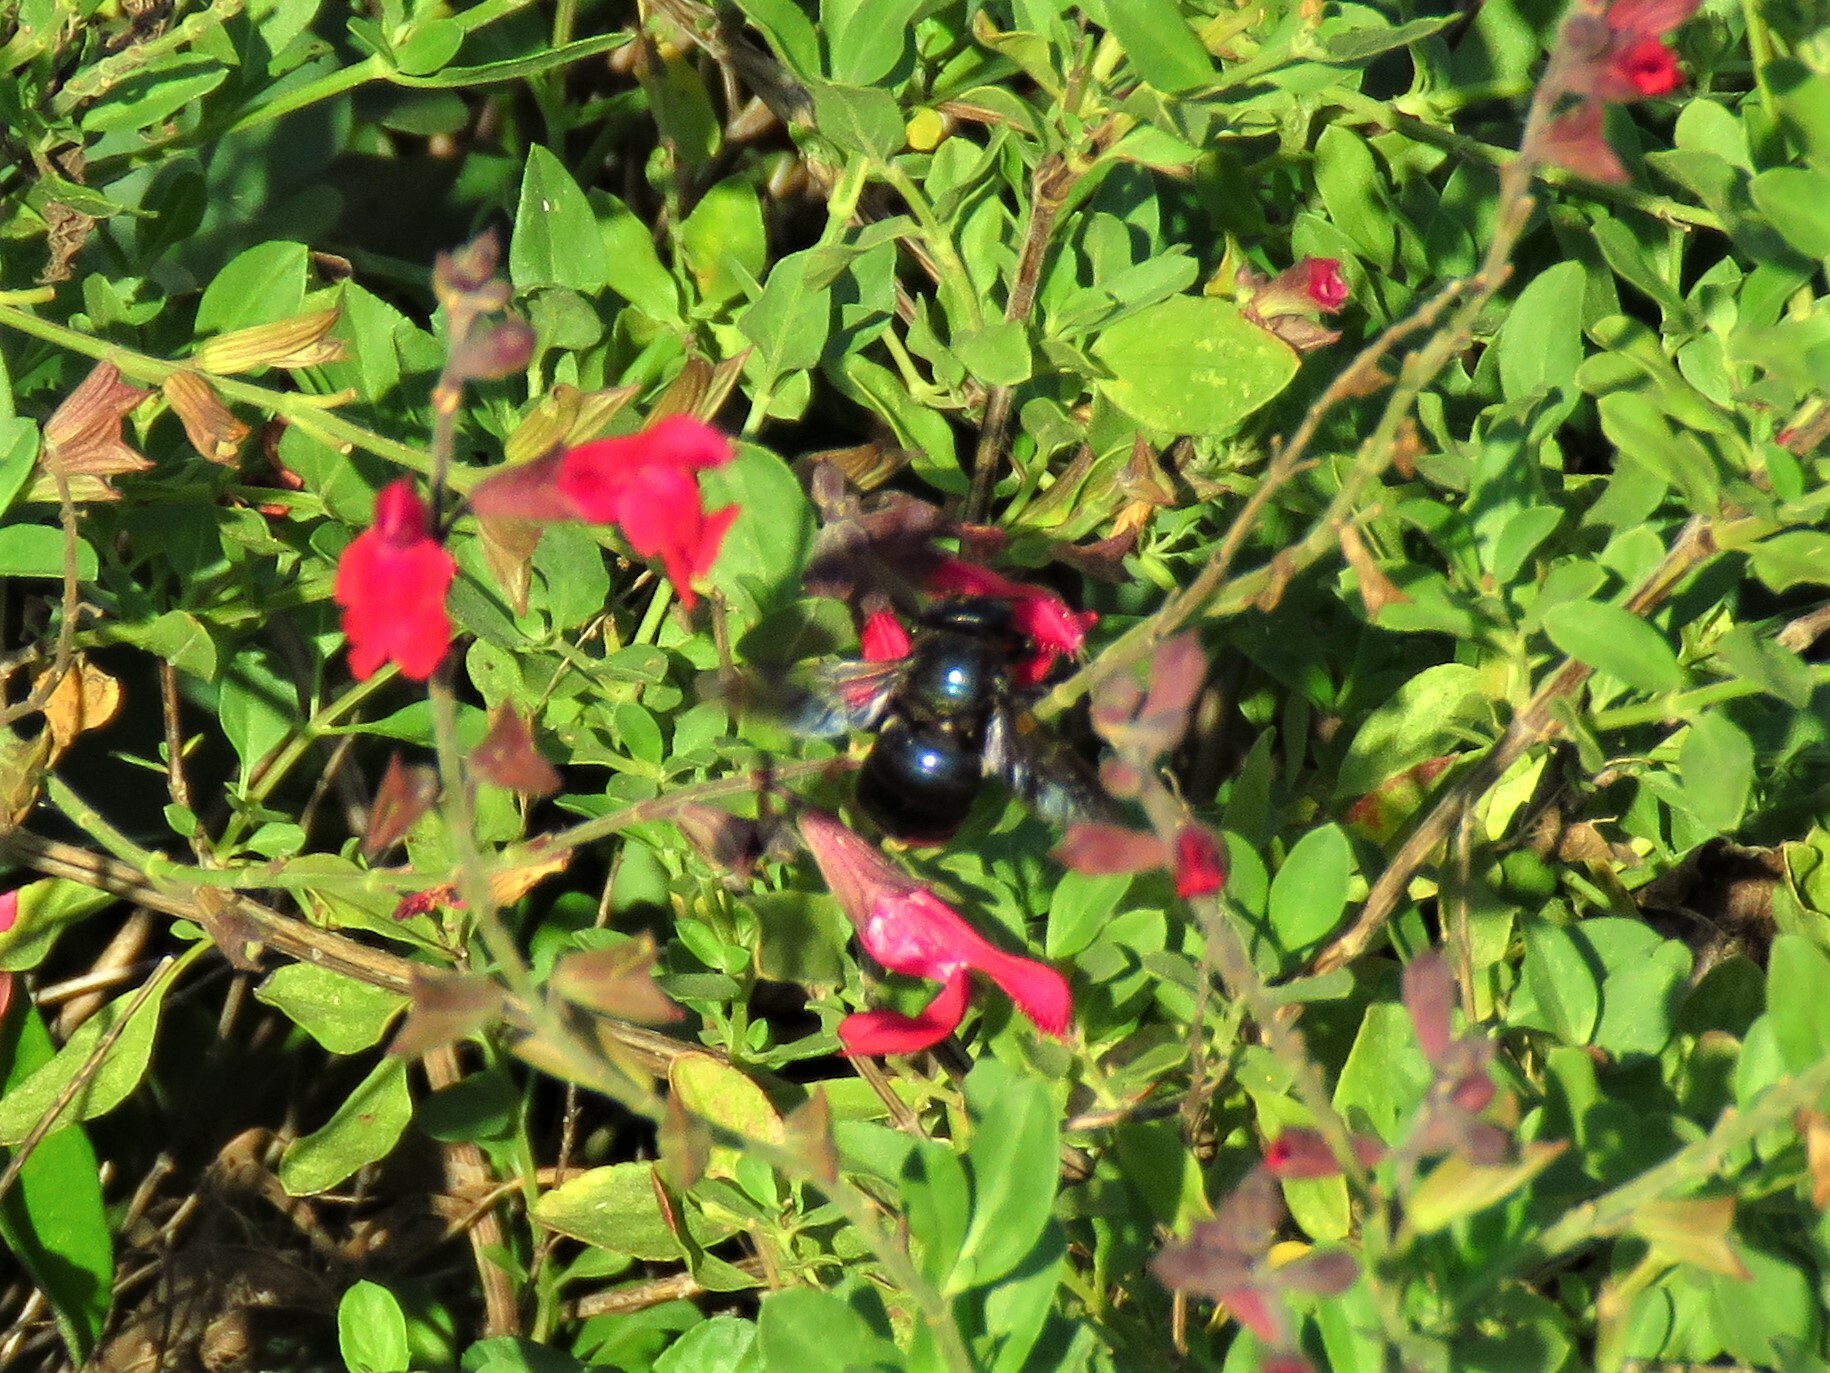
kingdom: Animalia
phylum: Arthropoda
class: Insecta
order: Hymenoptera
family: Apidae
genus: Xylocopa
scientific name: Xylocopa micans
